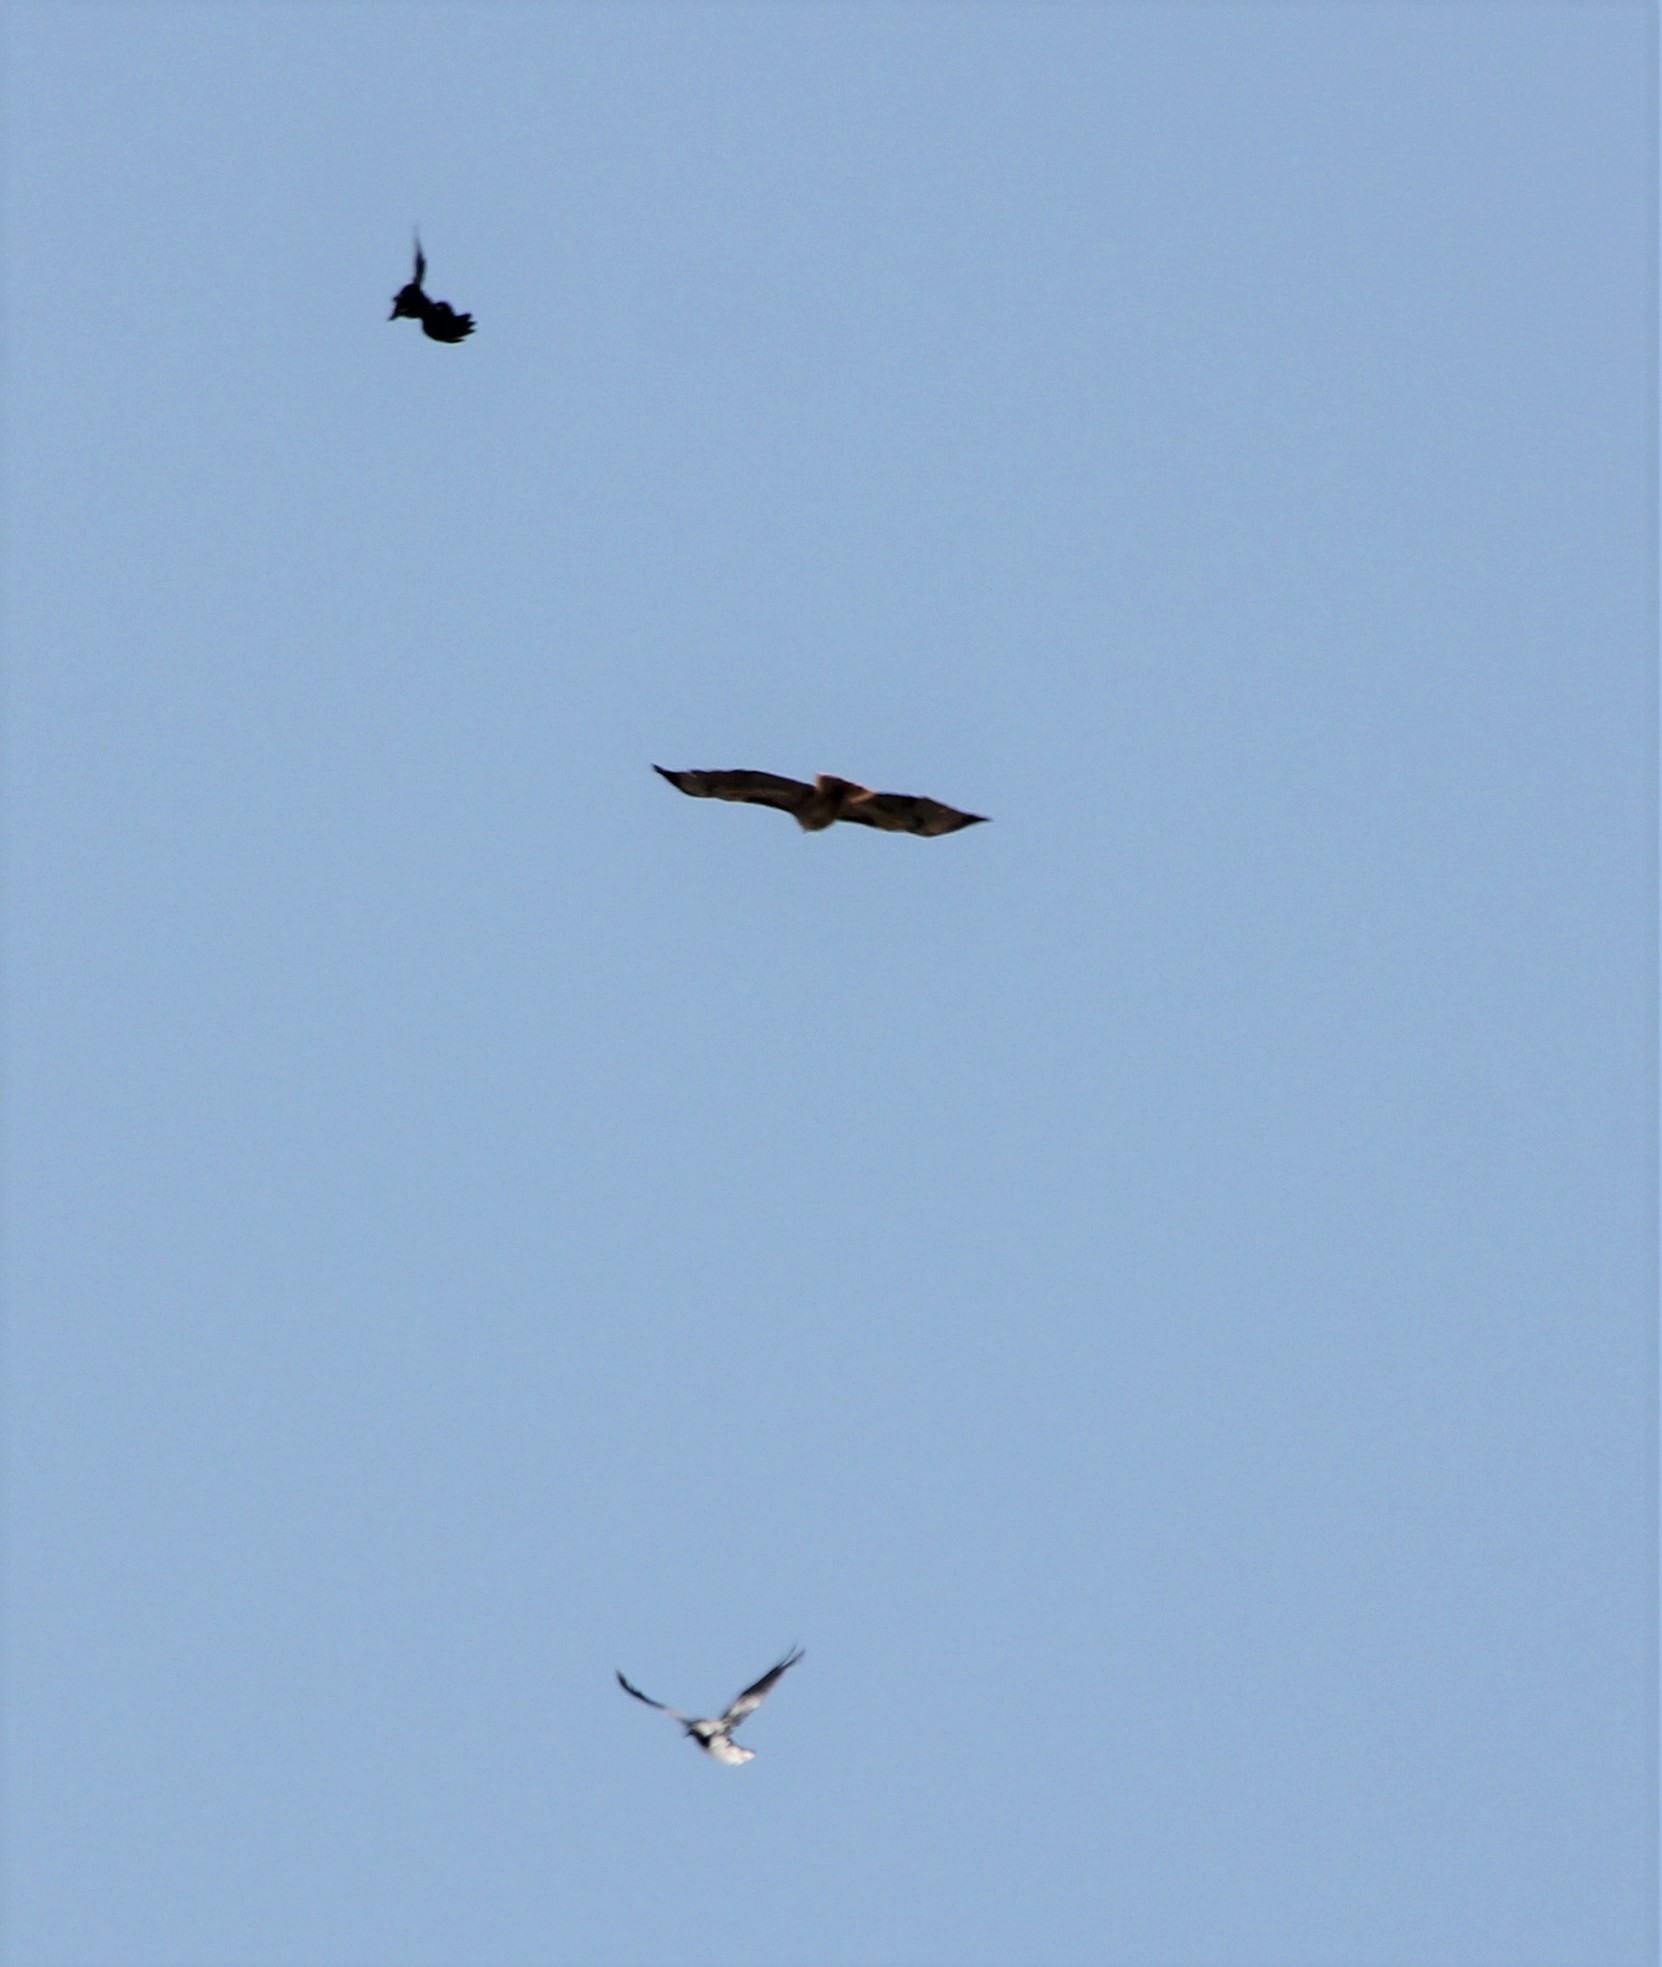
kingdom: Animalia
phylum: Chordata
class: Aves
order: Accipitriformes
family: Accipitridae
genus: Buteo
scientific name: Buteo jamaicensis
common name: Red-tailed hawk
